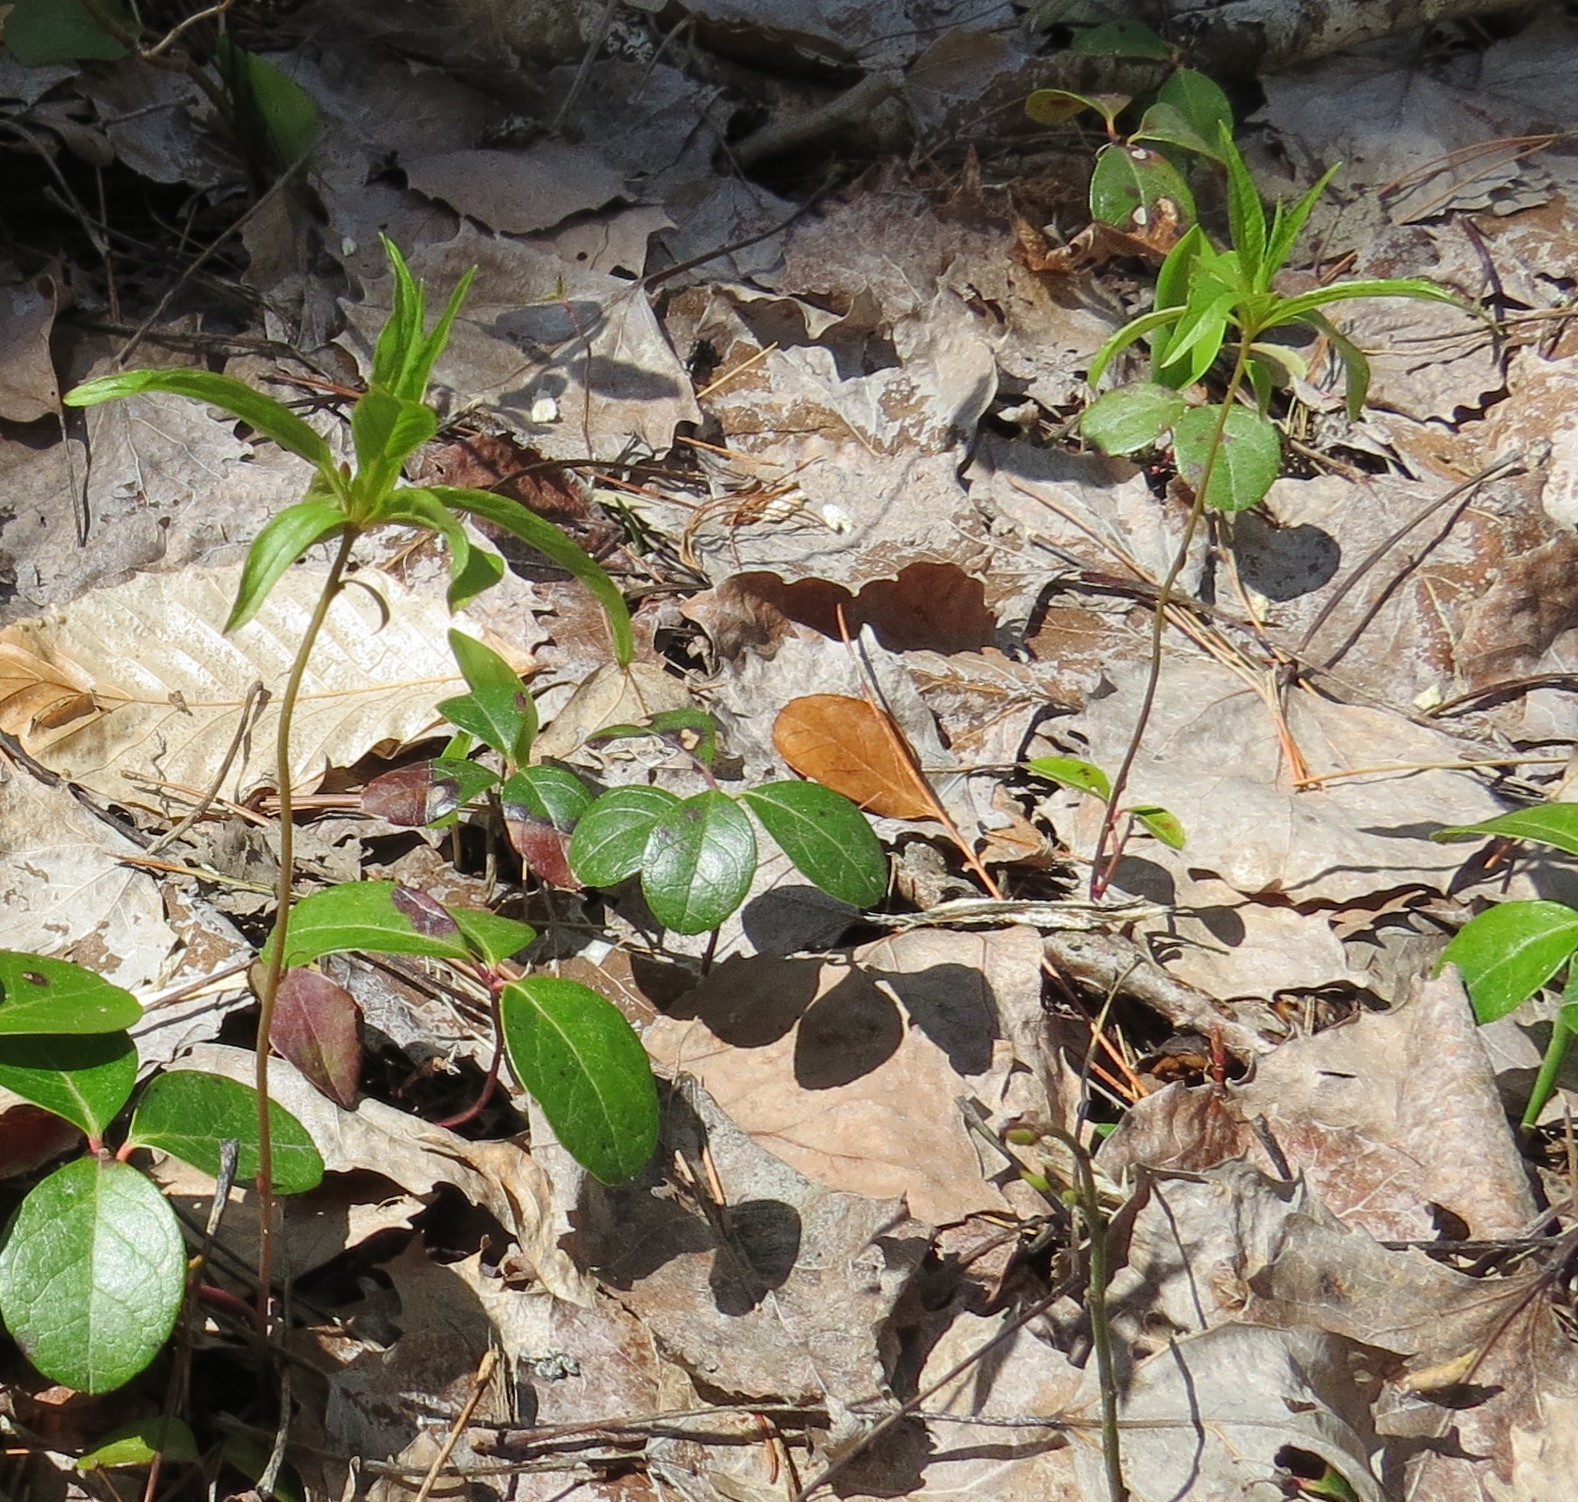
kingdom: Plantae
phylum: Tracheophyta
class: Magnoliopsida
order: Ericales
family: Primulaceae
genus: Lysimachia
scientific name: Lysimachia borealis
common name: American starflower
